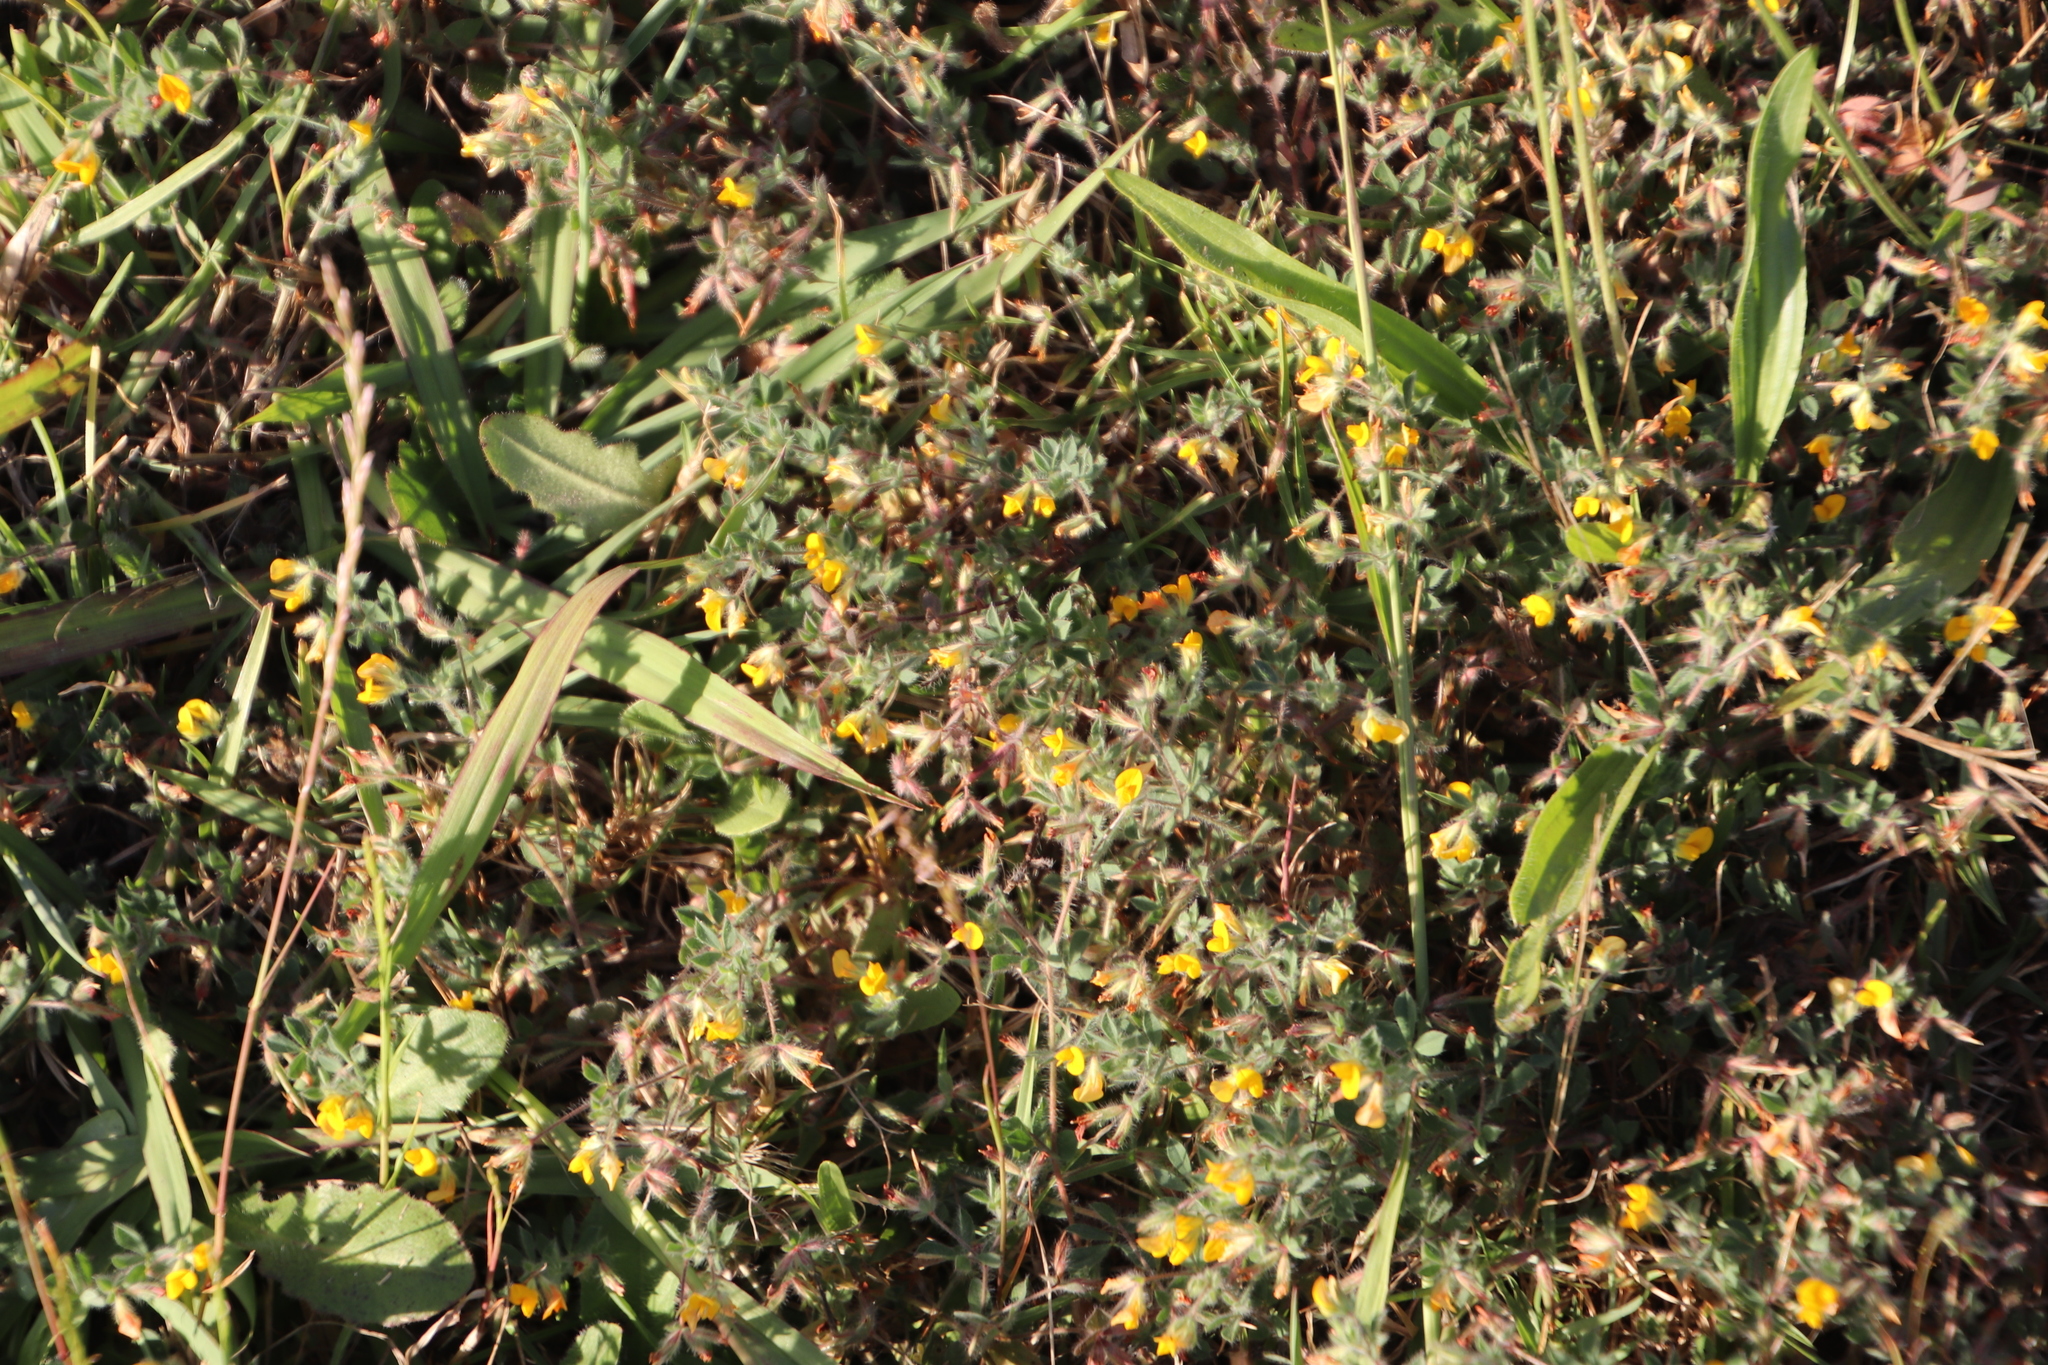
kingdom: Plantae
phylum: Tracheophyta
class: Magnoliopsida
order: Fabales
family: Fabaceae
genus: Lotus
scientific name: Lotus subbiflorus
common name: Hairy bird's-foot trefoil
